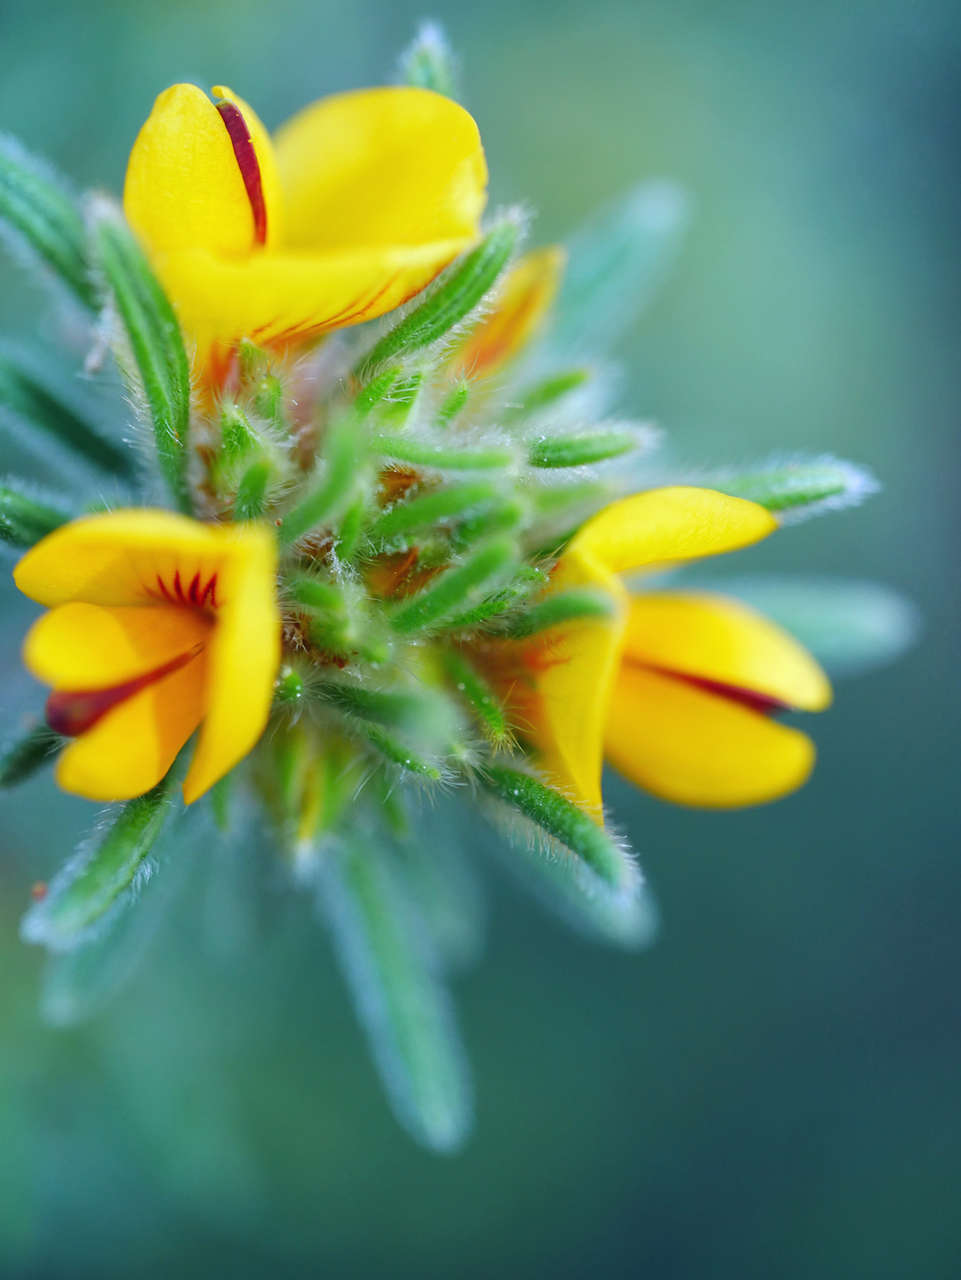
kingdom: Plantae
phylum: Tracheophyta
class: Magnoliopsida
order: Fabales
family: Fabaceae
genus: Pultenaea
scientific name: Pultenaea daltonii
